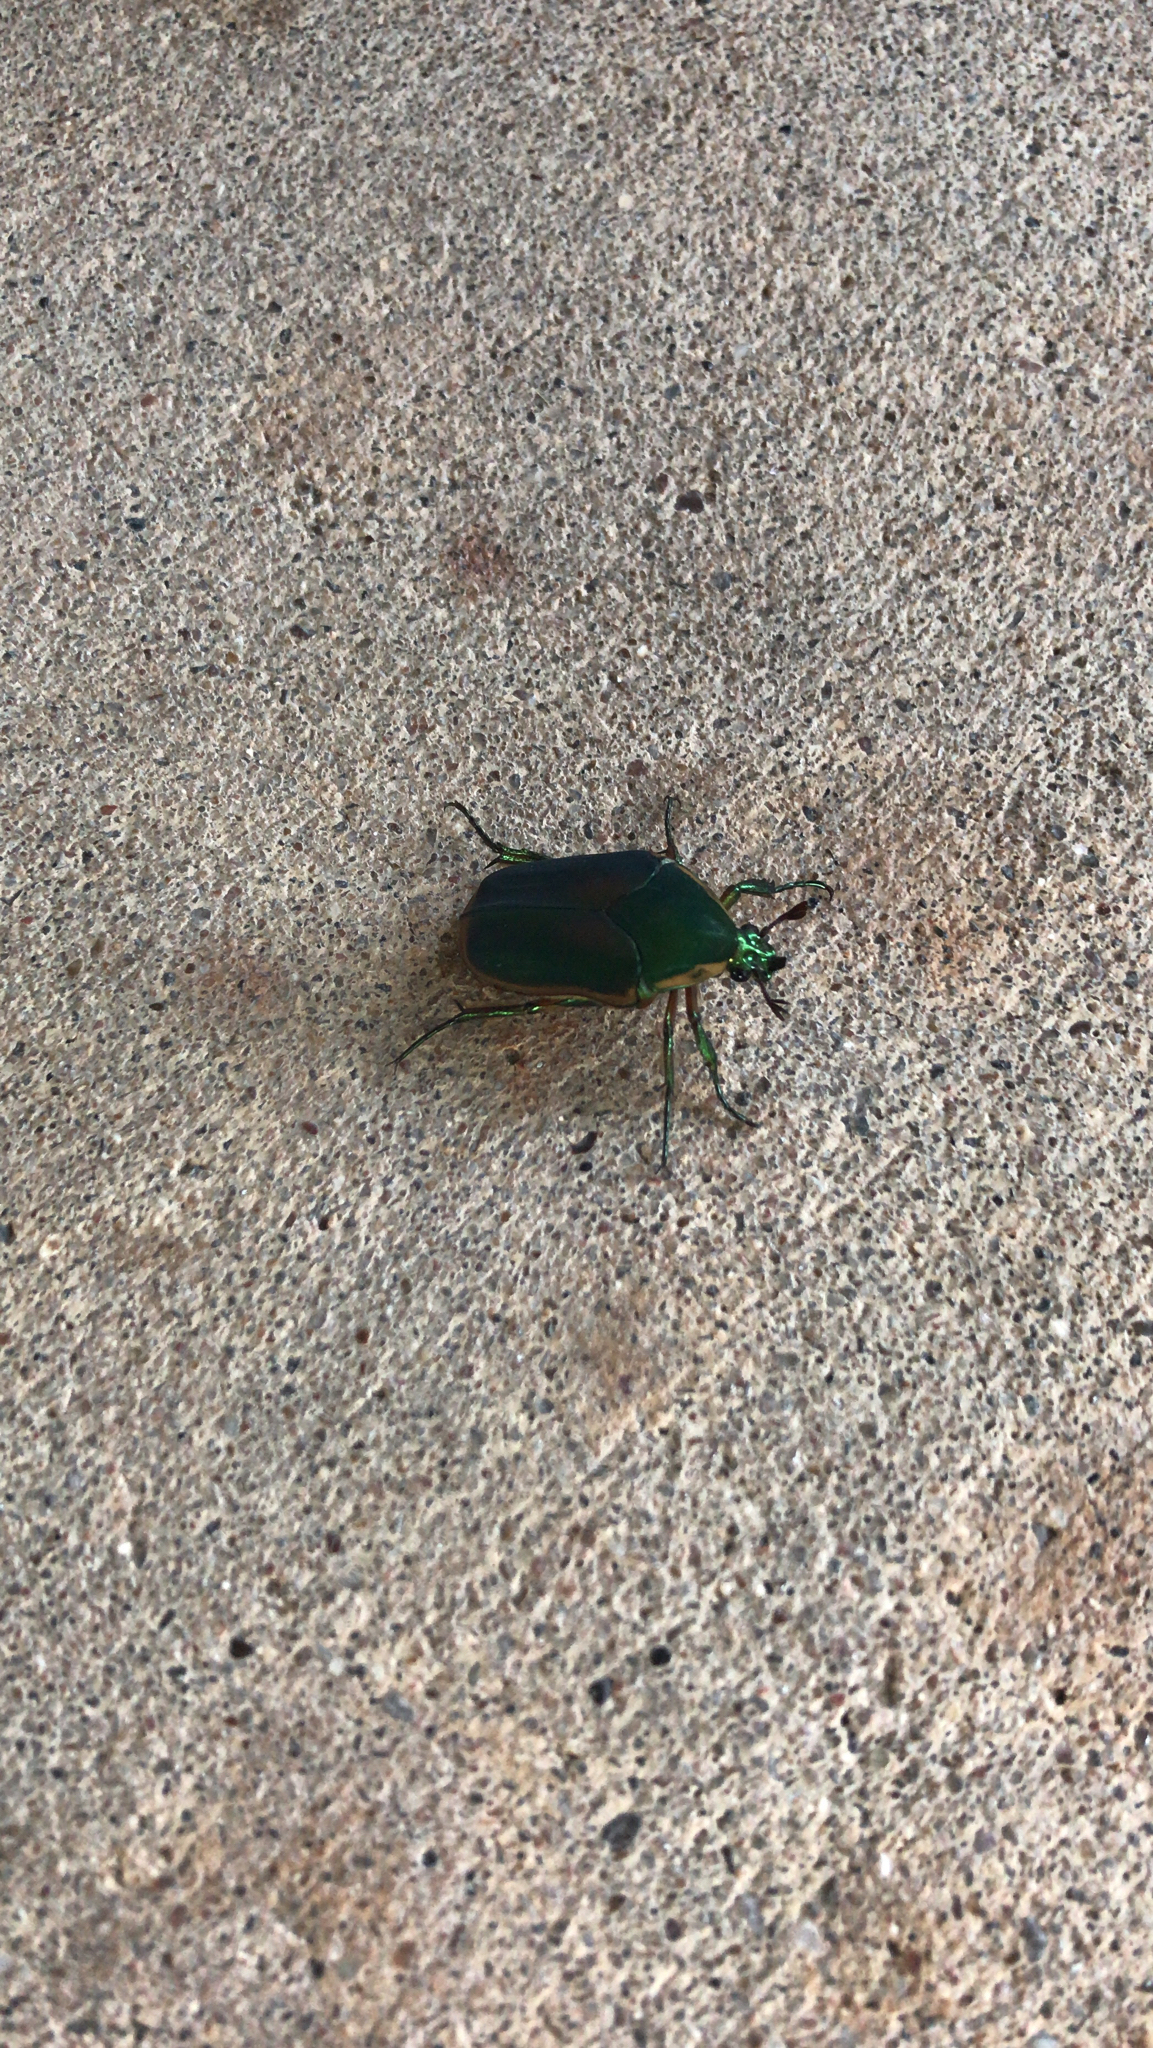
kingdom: Animalia
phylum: Arthropoda
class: Insecta
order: Coleoptera
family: Scarabaeidae
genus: Cotinis
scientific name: Cotinis nitida
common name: Common green june beetle
